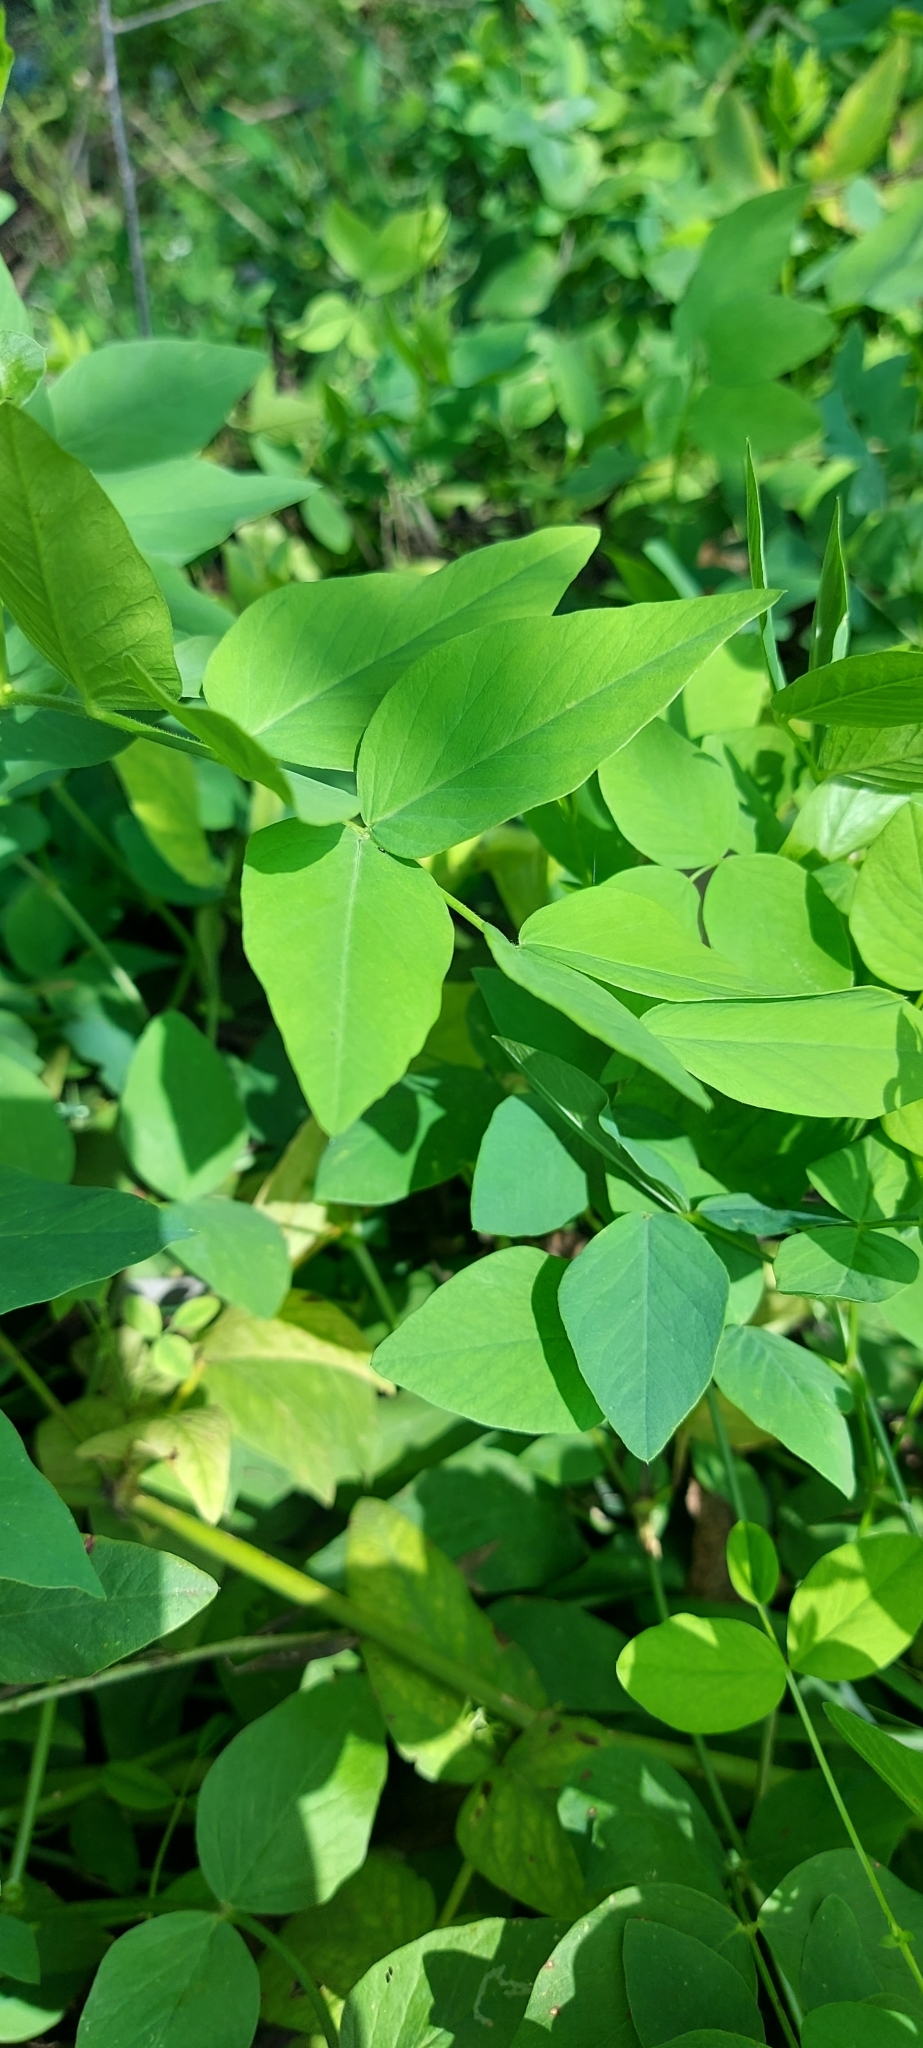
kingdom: Plantae
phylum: Tracheophyta
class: Magnoliopsida
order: Fabales
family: Fabaceae
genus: Galega
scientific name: Galega orientalis
